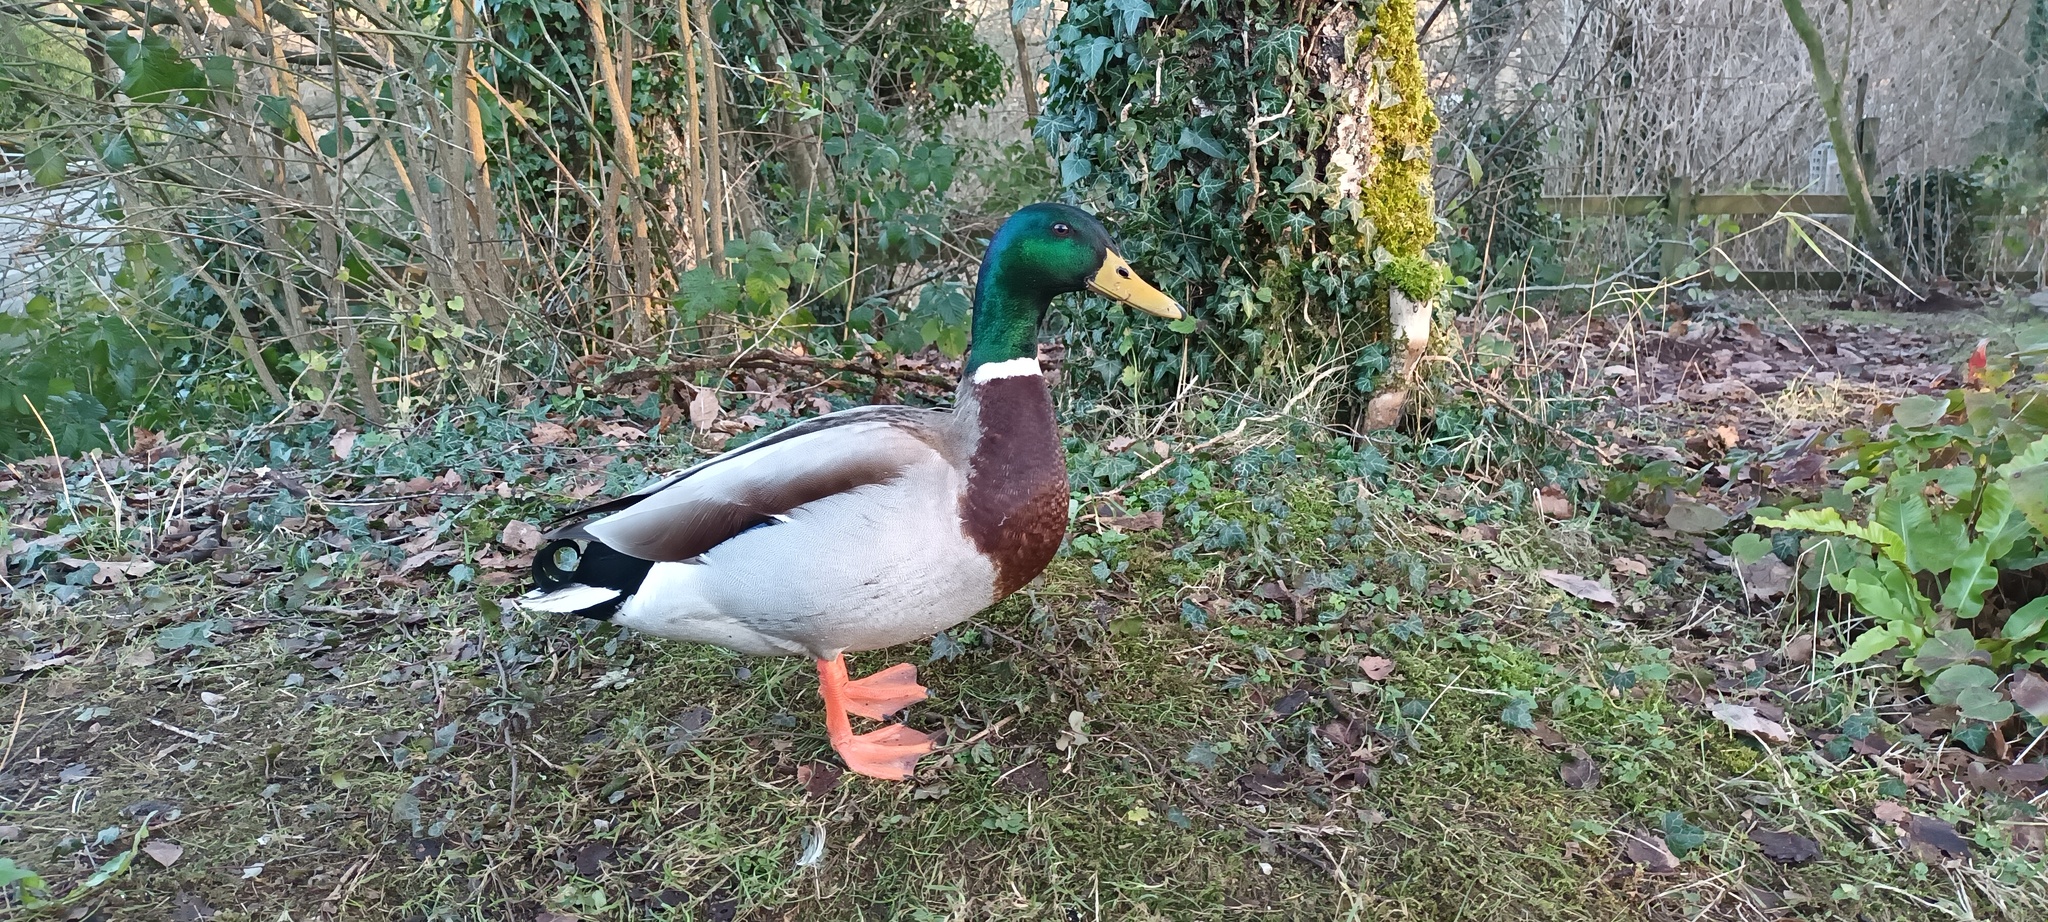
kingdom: Animalia
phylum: Chordata
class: Aves
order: Anseriformes
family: Anatidae
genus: Anas
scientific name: Anas platyrhynchos
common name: Mallard
